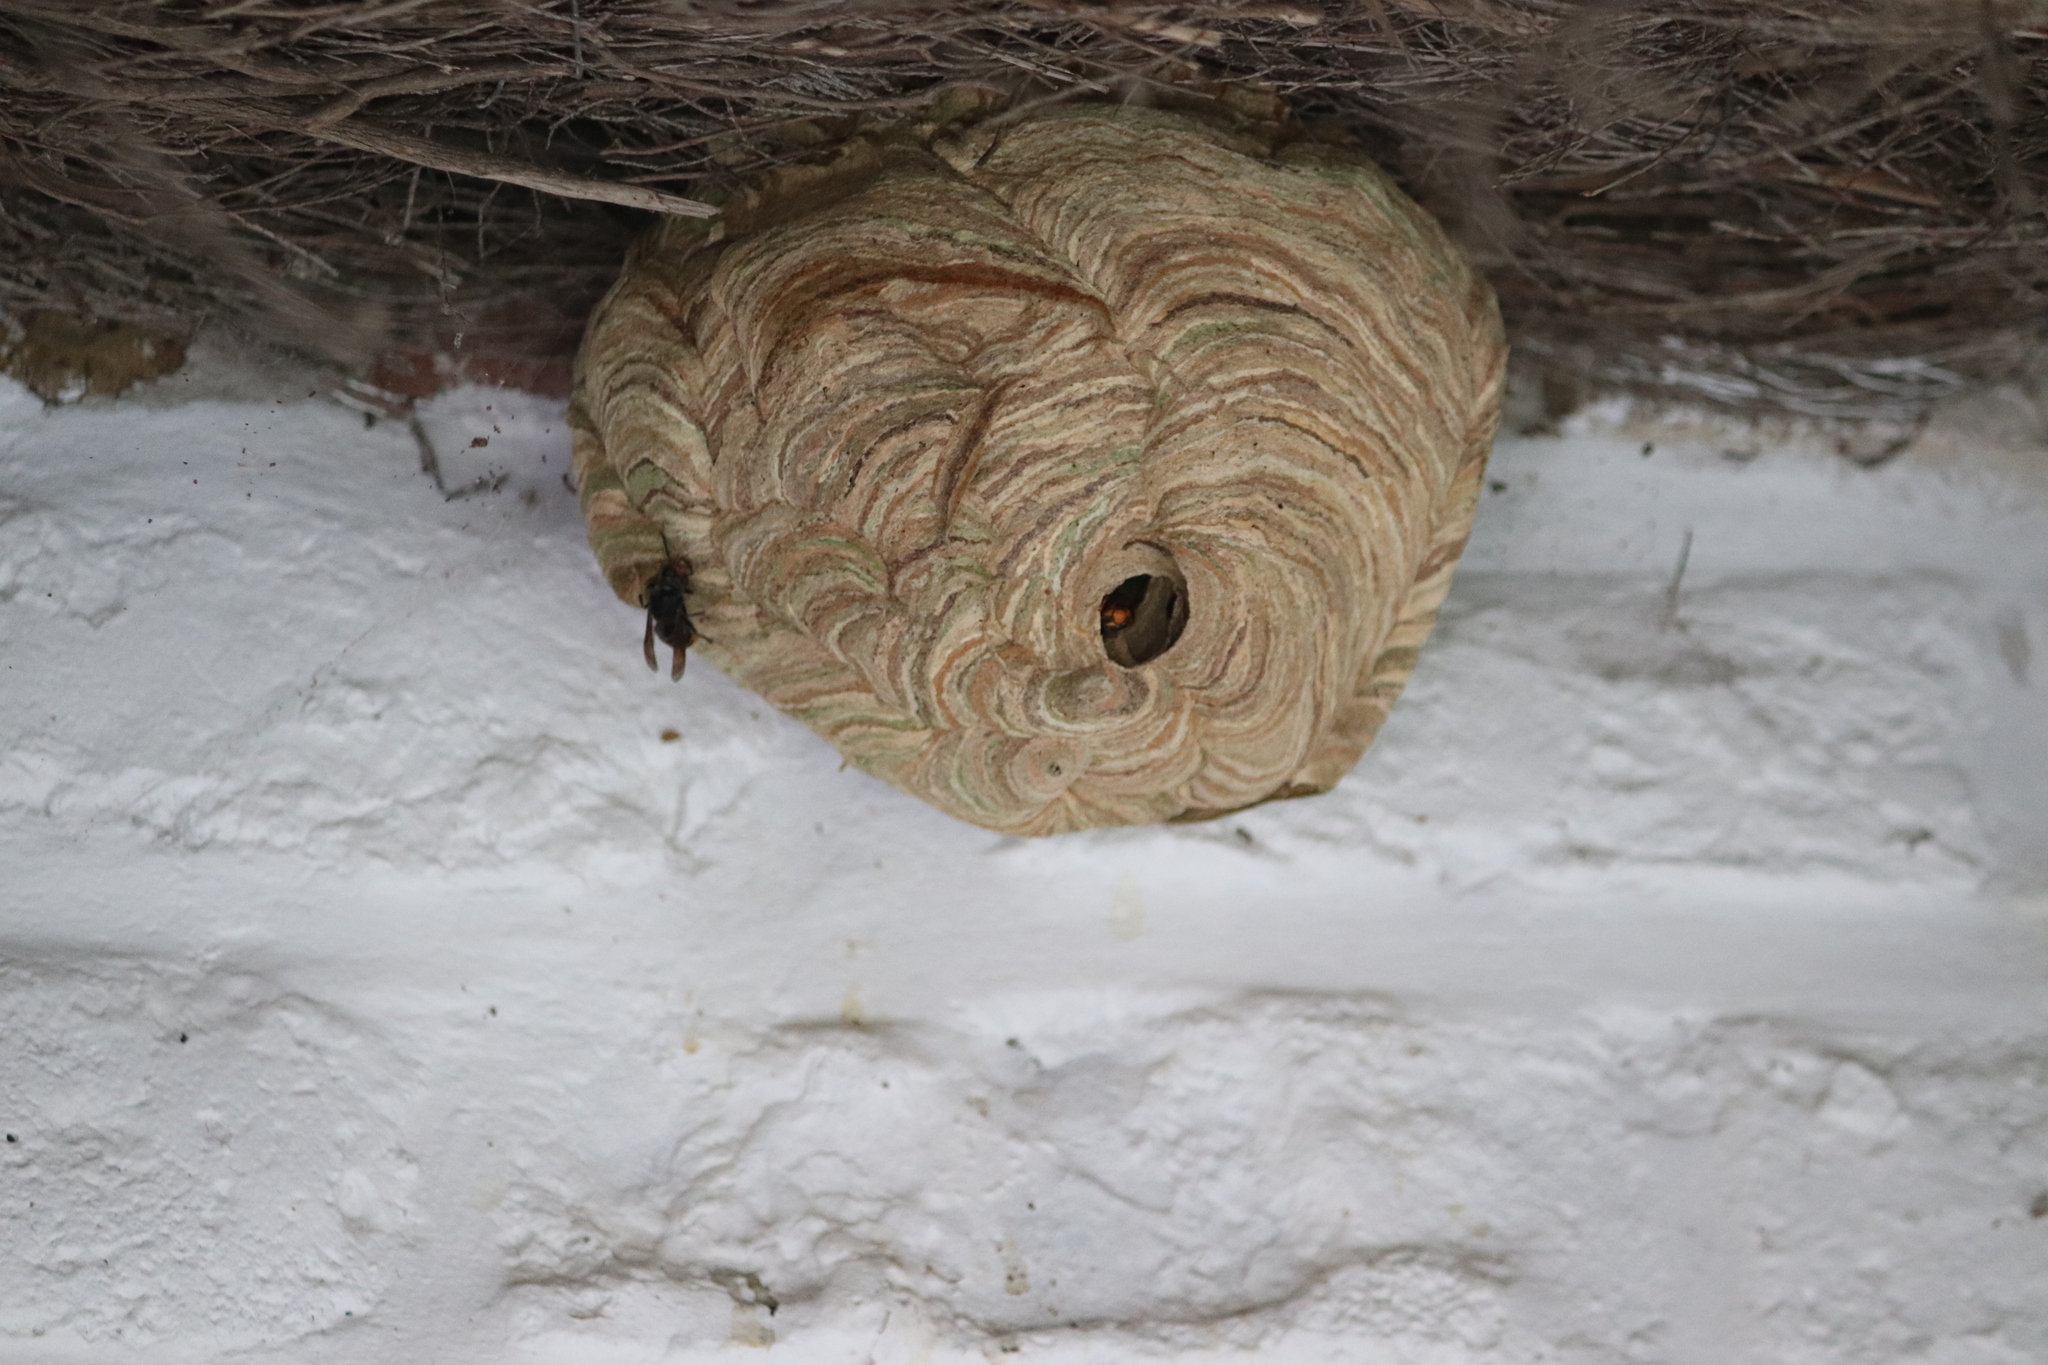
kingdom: Animalia
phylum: Arthropoda
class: Insecta
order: Hymenoptera
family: Vespidae
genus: Vespa
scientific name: Vespa velutina
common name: Asian hornet
